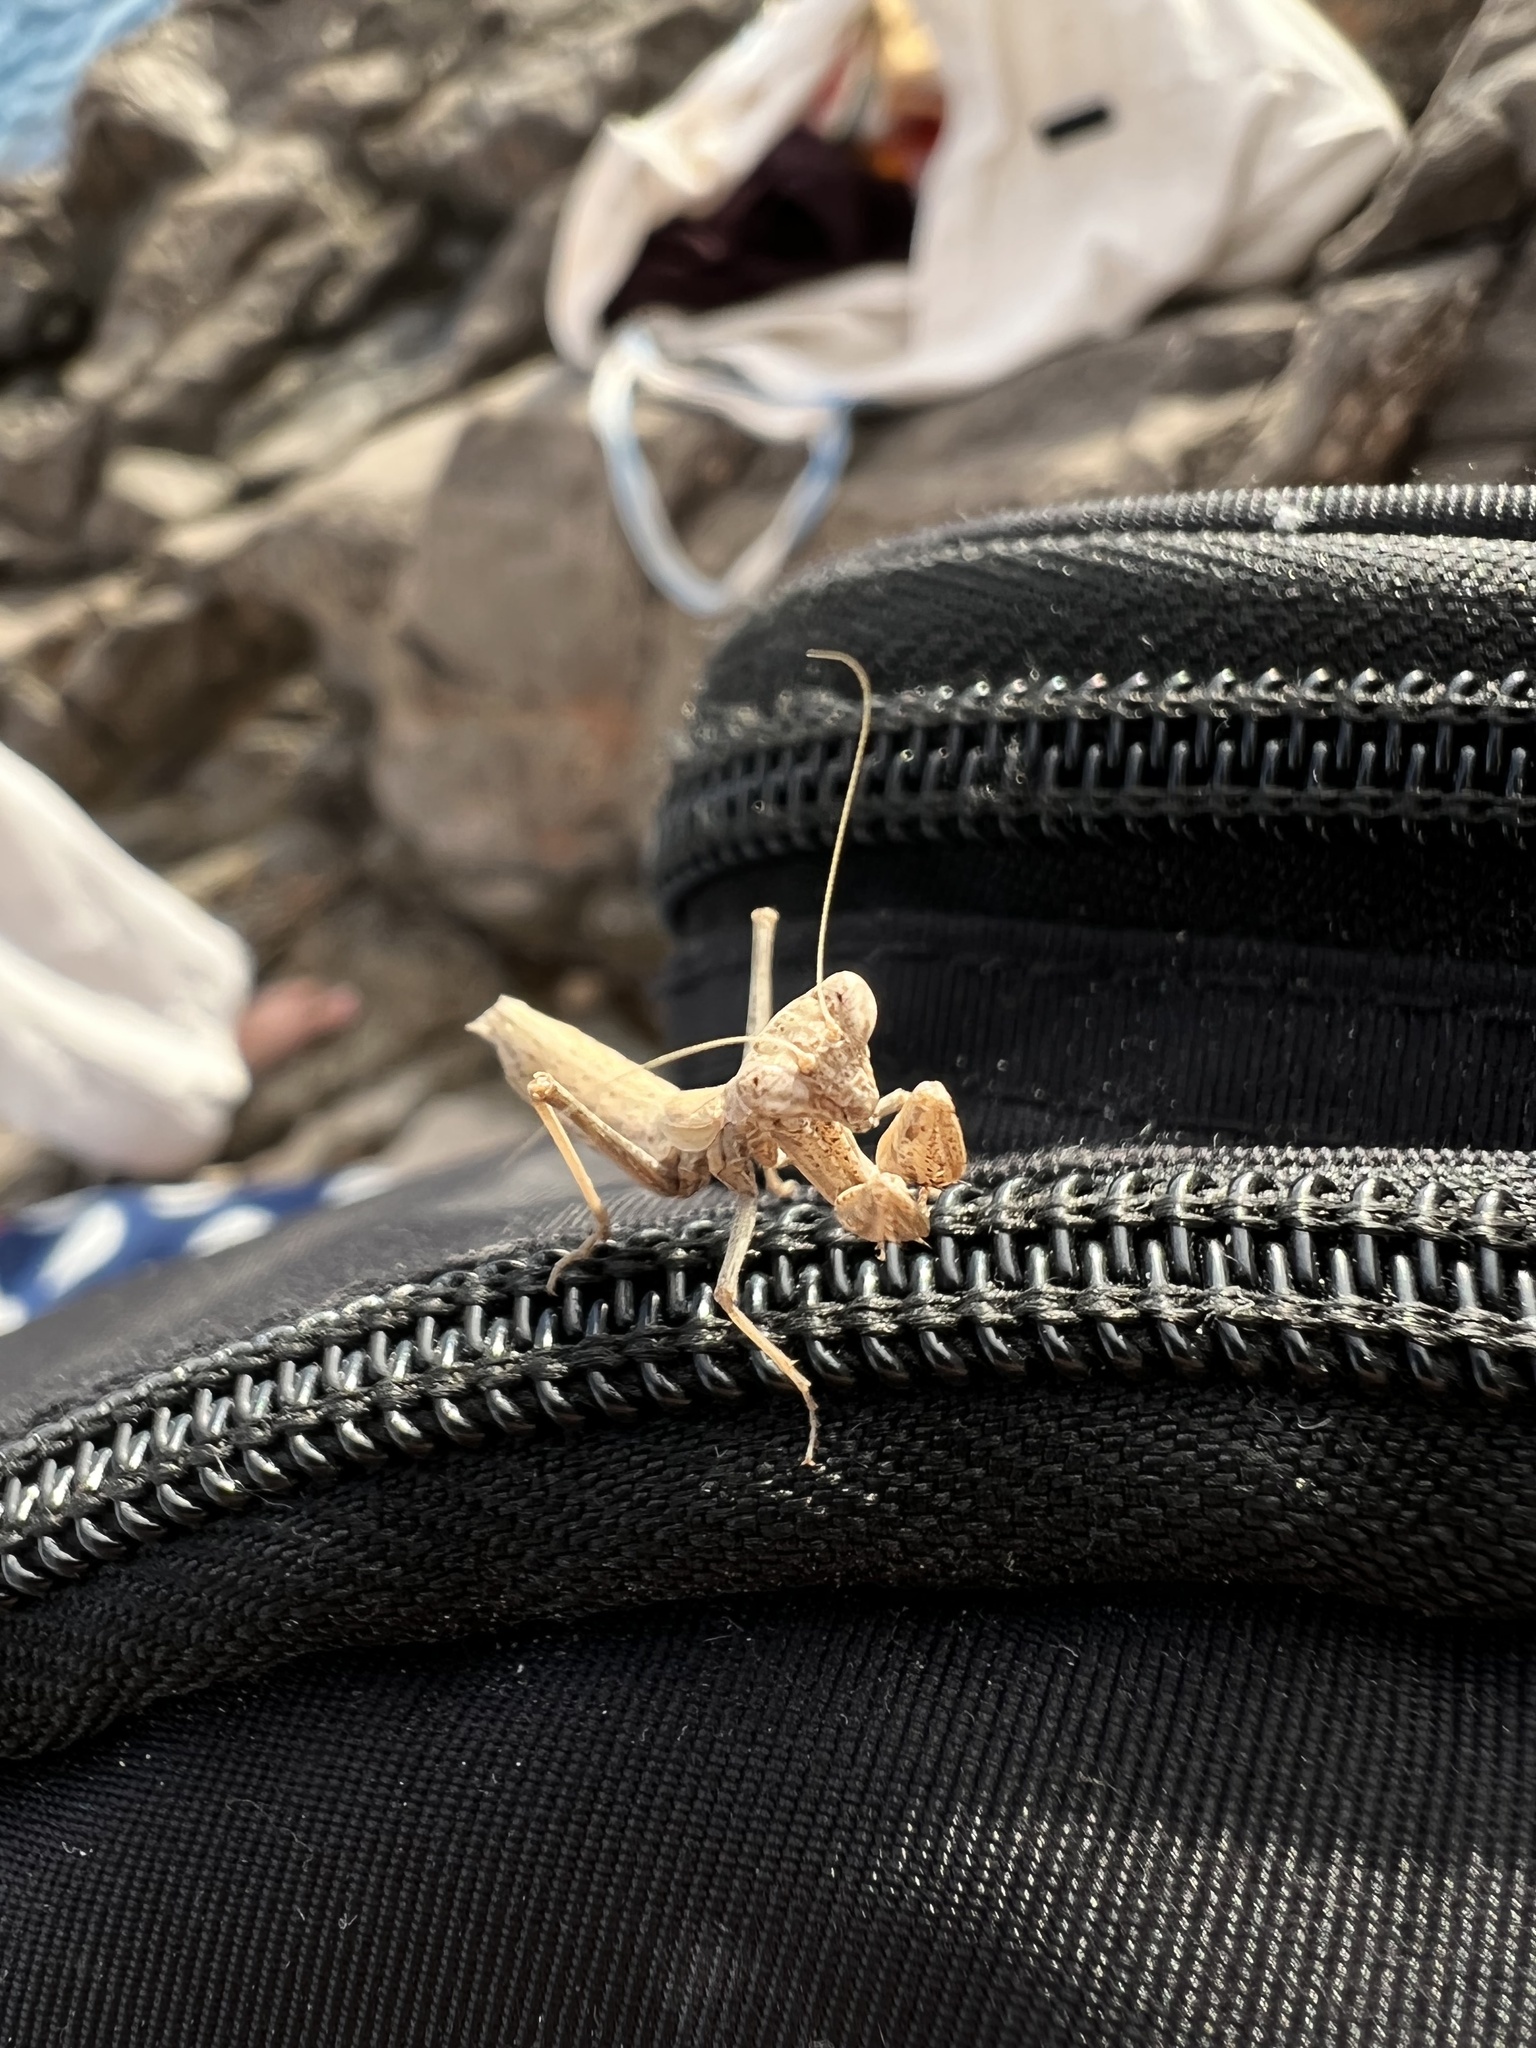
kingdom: Animalia
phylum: Arthropoda
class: Insecta
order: Mantodea
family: Amelidae
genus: Ameles
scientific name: Ameles decolor
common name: Dwarf mantis
